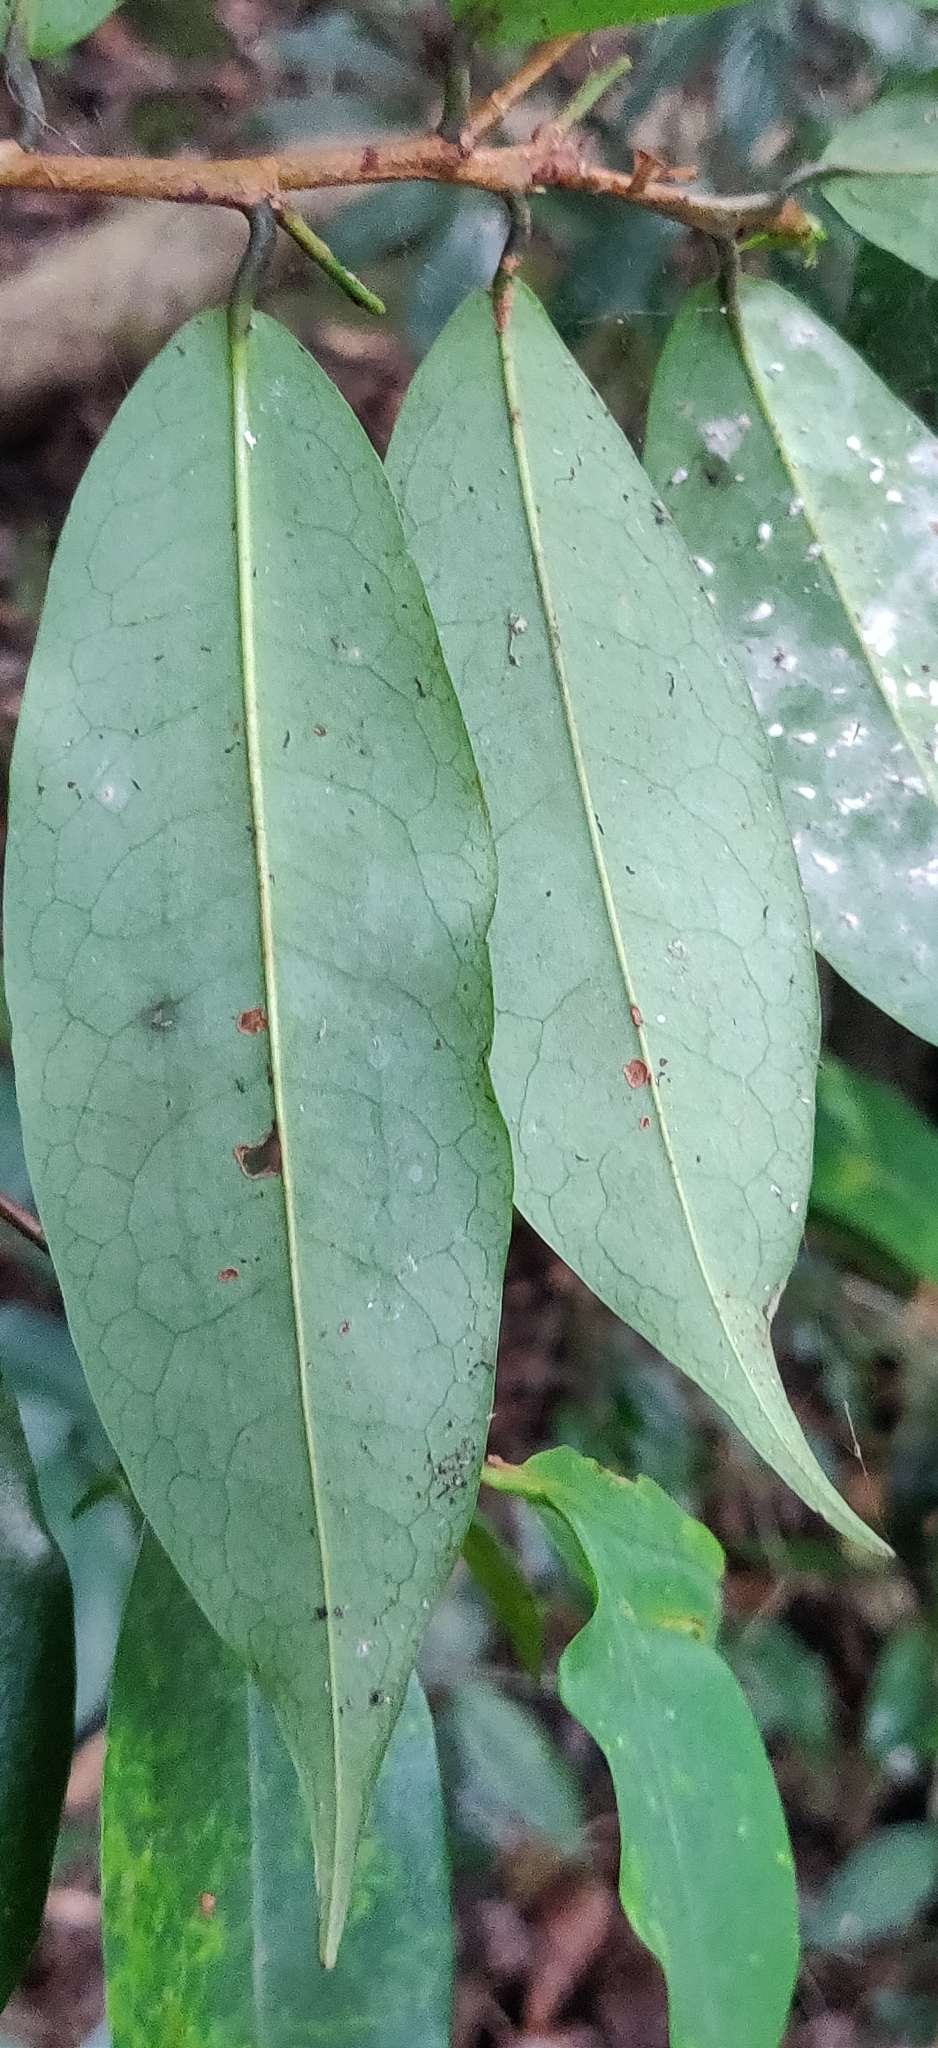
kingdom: Plantae
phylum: Tracheophyta
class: Magnoliopsida
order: Malpighiales
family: Erythroxylaceae
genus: Erythroxylum
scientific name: Erythroxylum moonii
